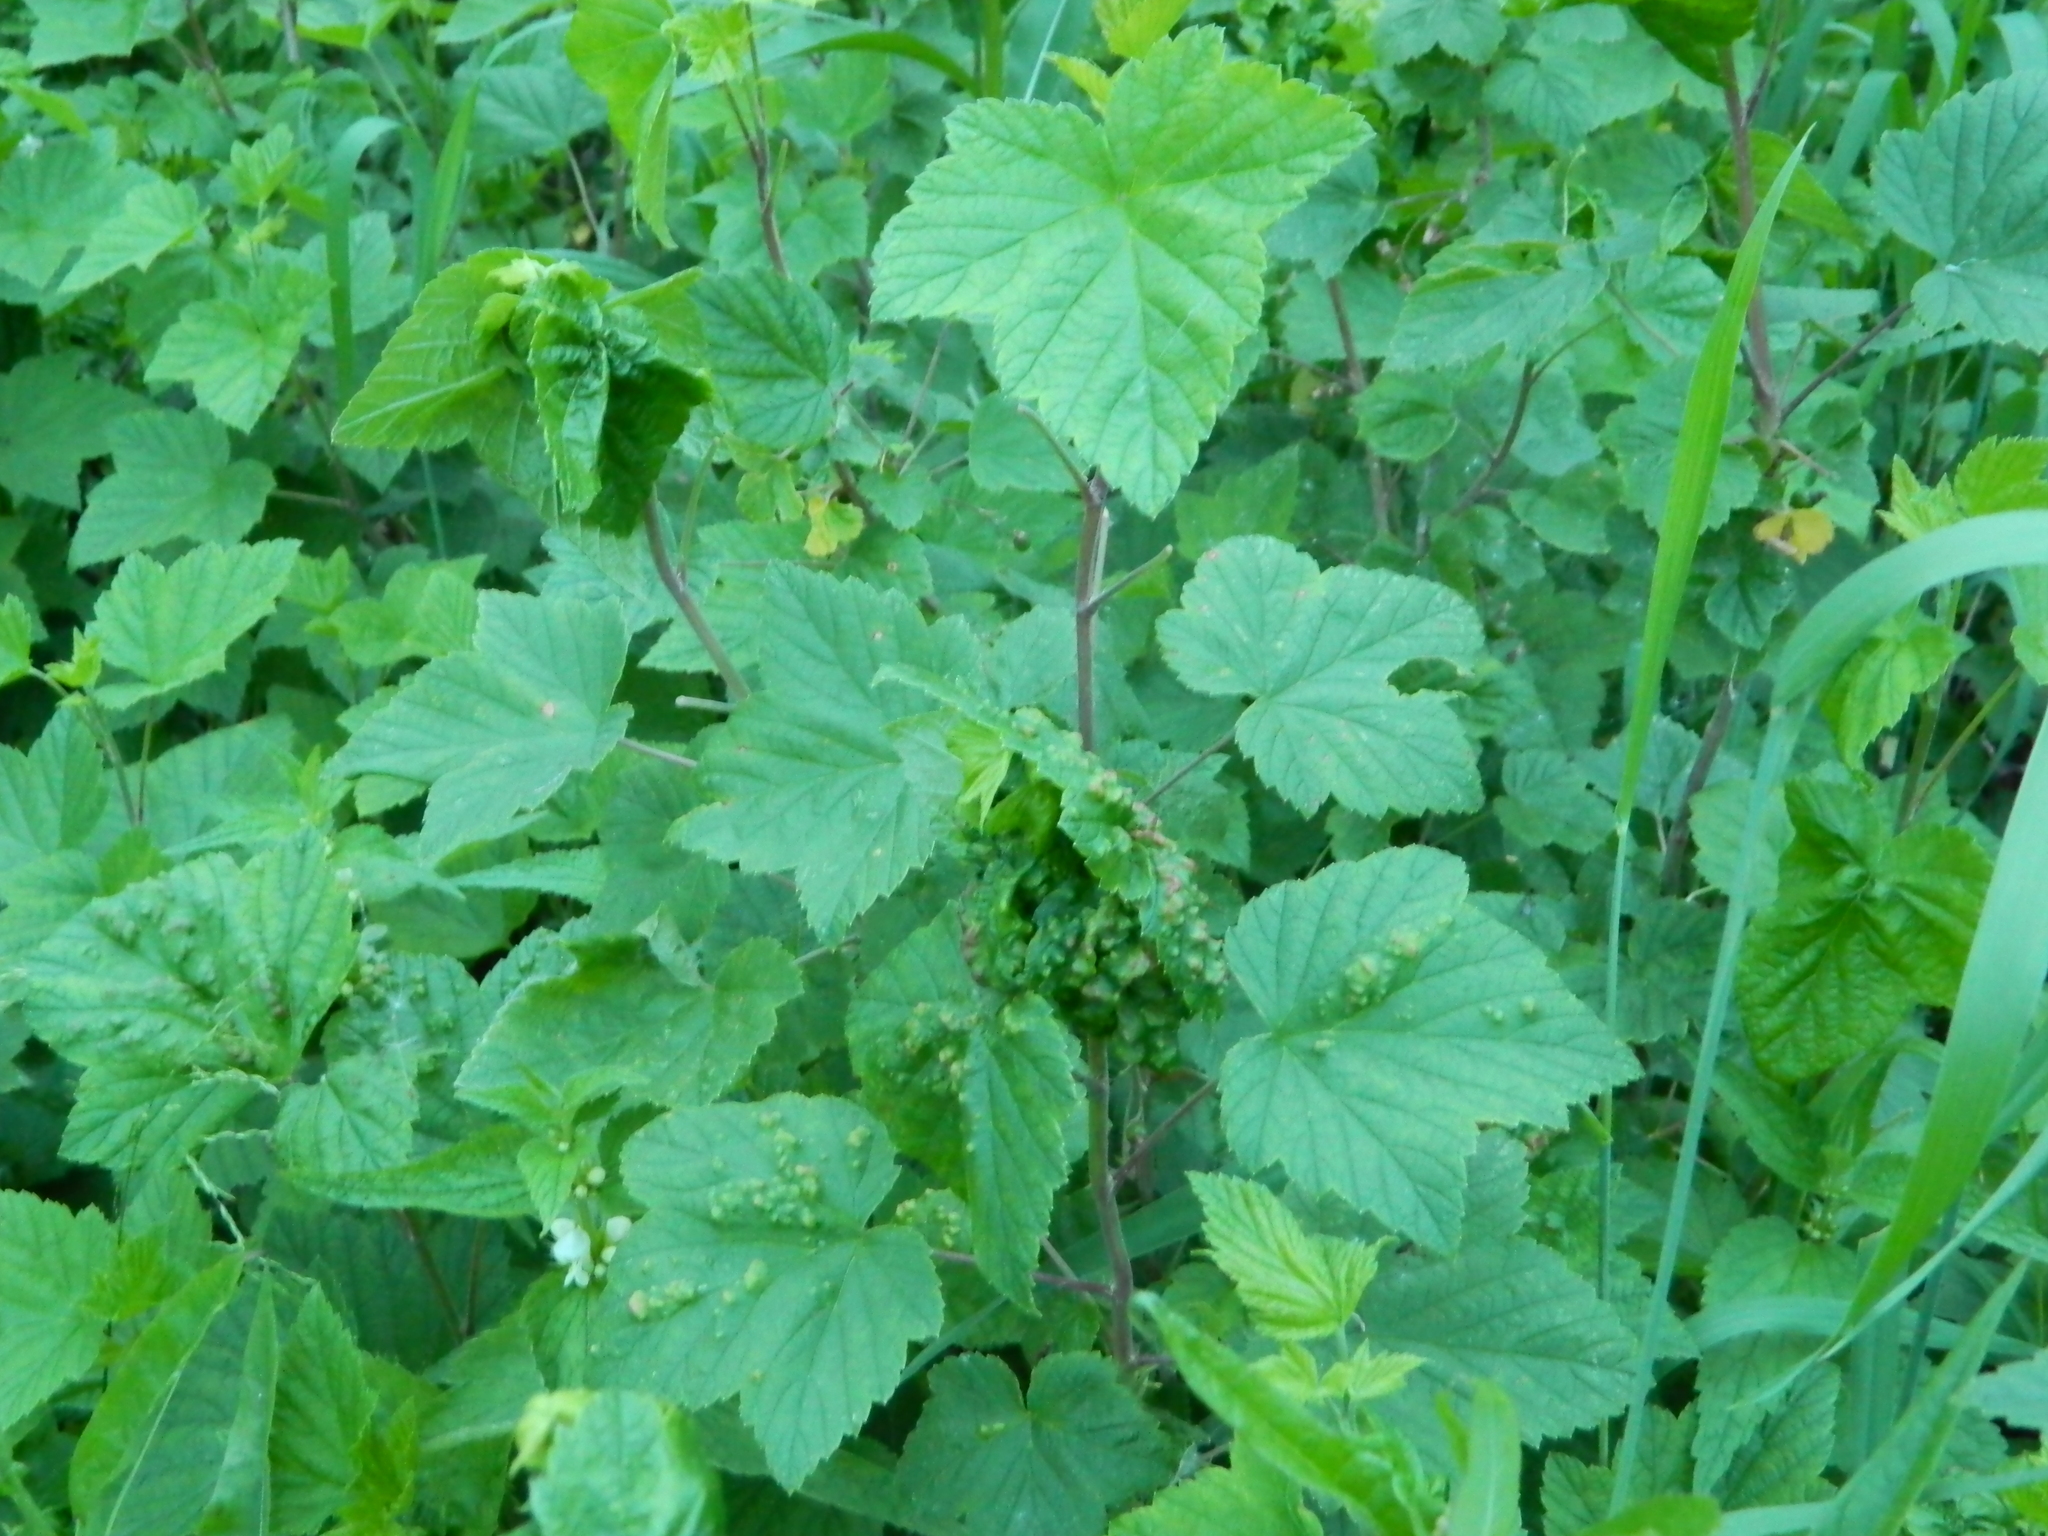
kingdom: Plantae
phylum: Tracheophyta
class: Magnoliopsida
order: Saxifragales
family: Grossulariaceae
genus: Ribes
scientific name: Ribes nigrum
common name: Black currant
